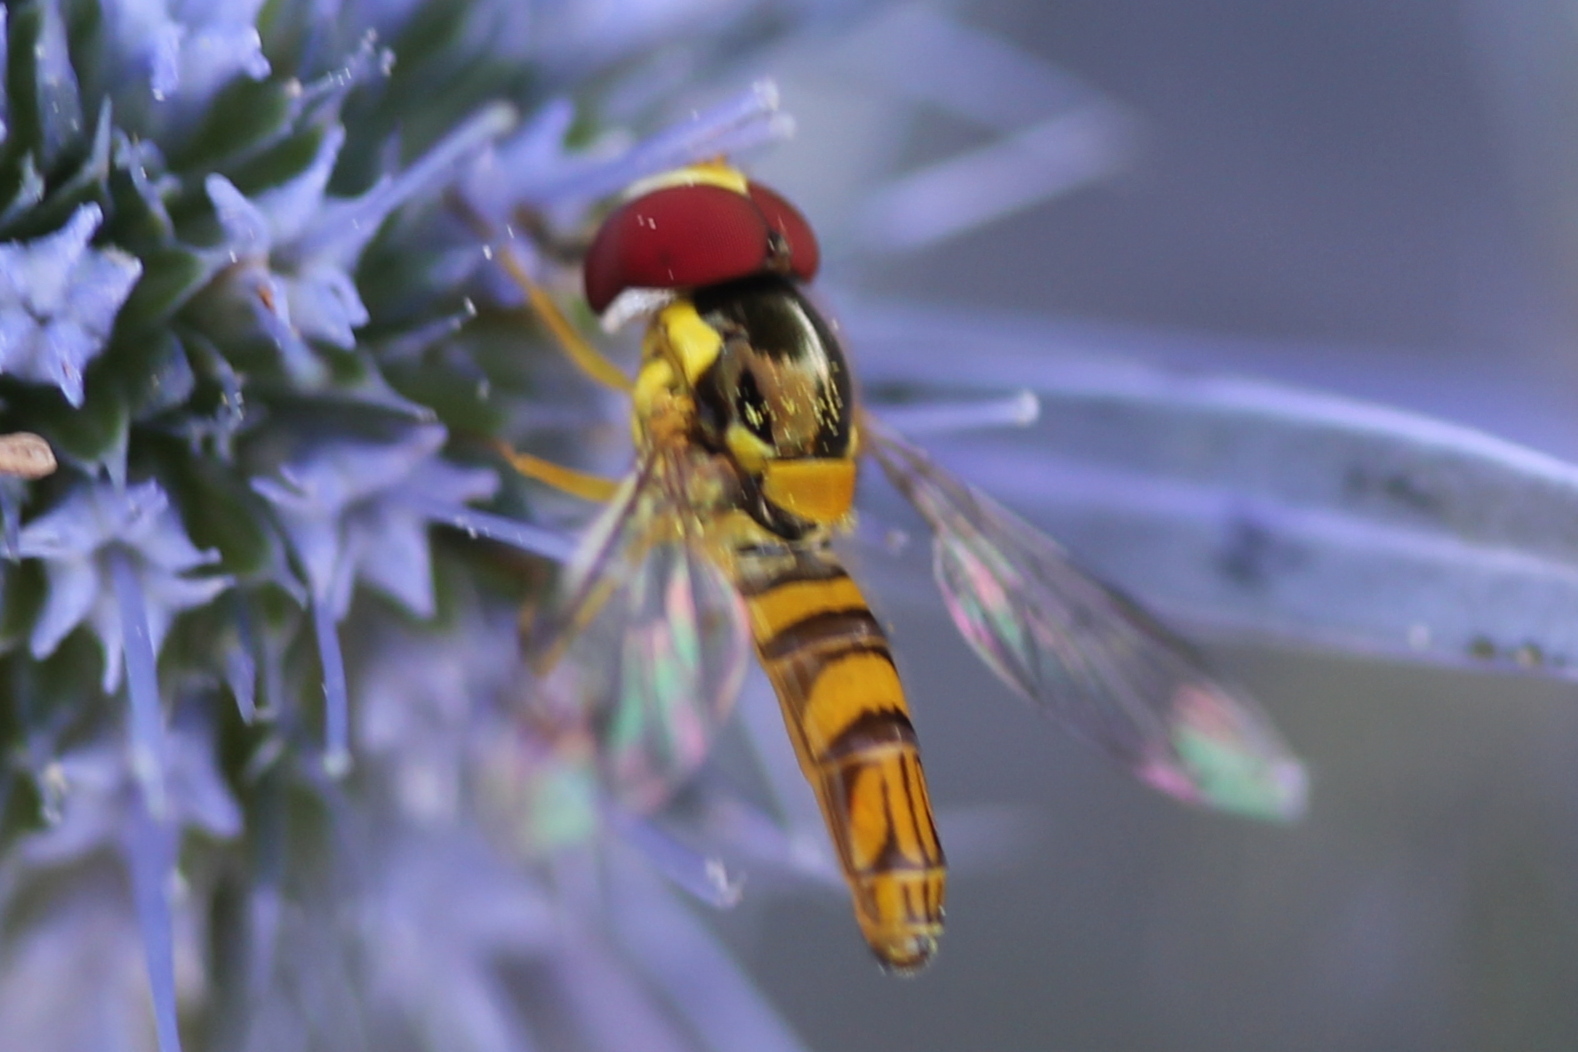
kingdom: Animalia
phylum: Arthropoda
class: Insecta
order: Diptera
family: Syrphidae
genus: Allograpta
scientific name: Allograpta obliqua
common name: Common oblique syrphid
